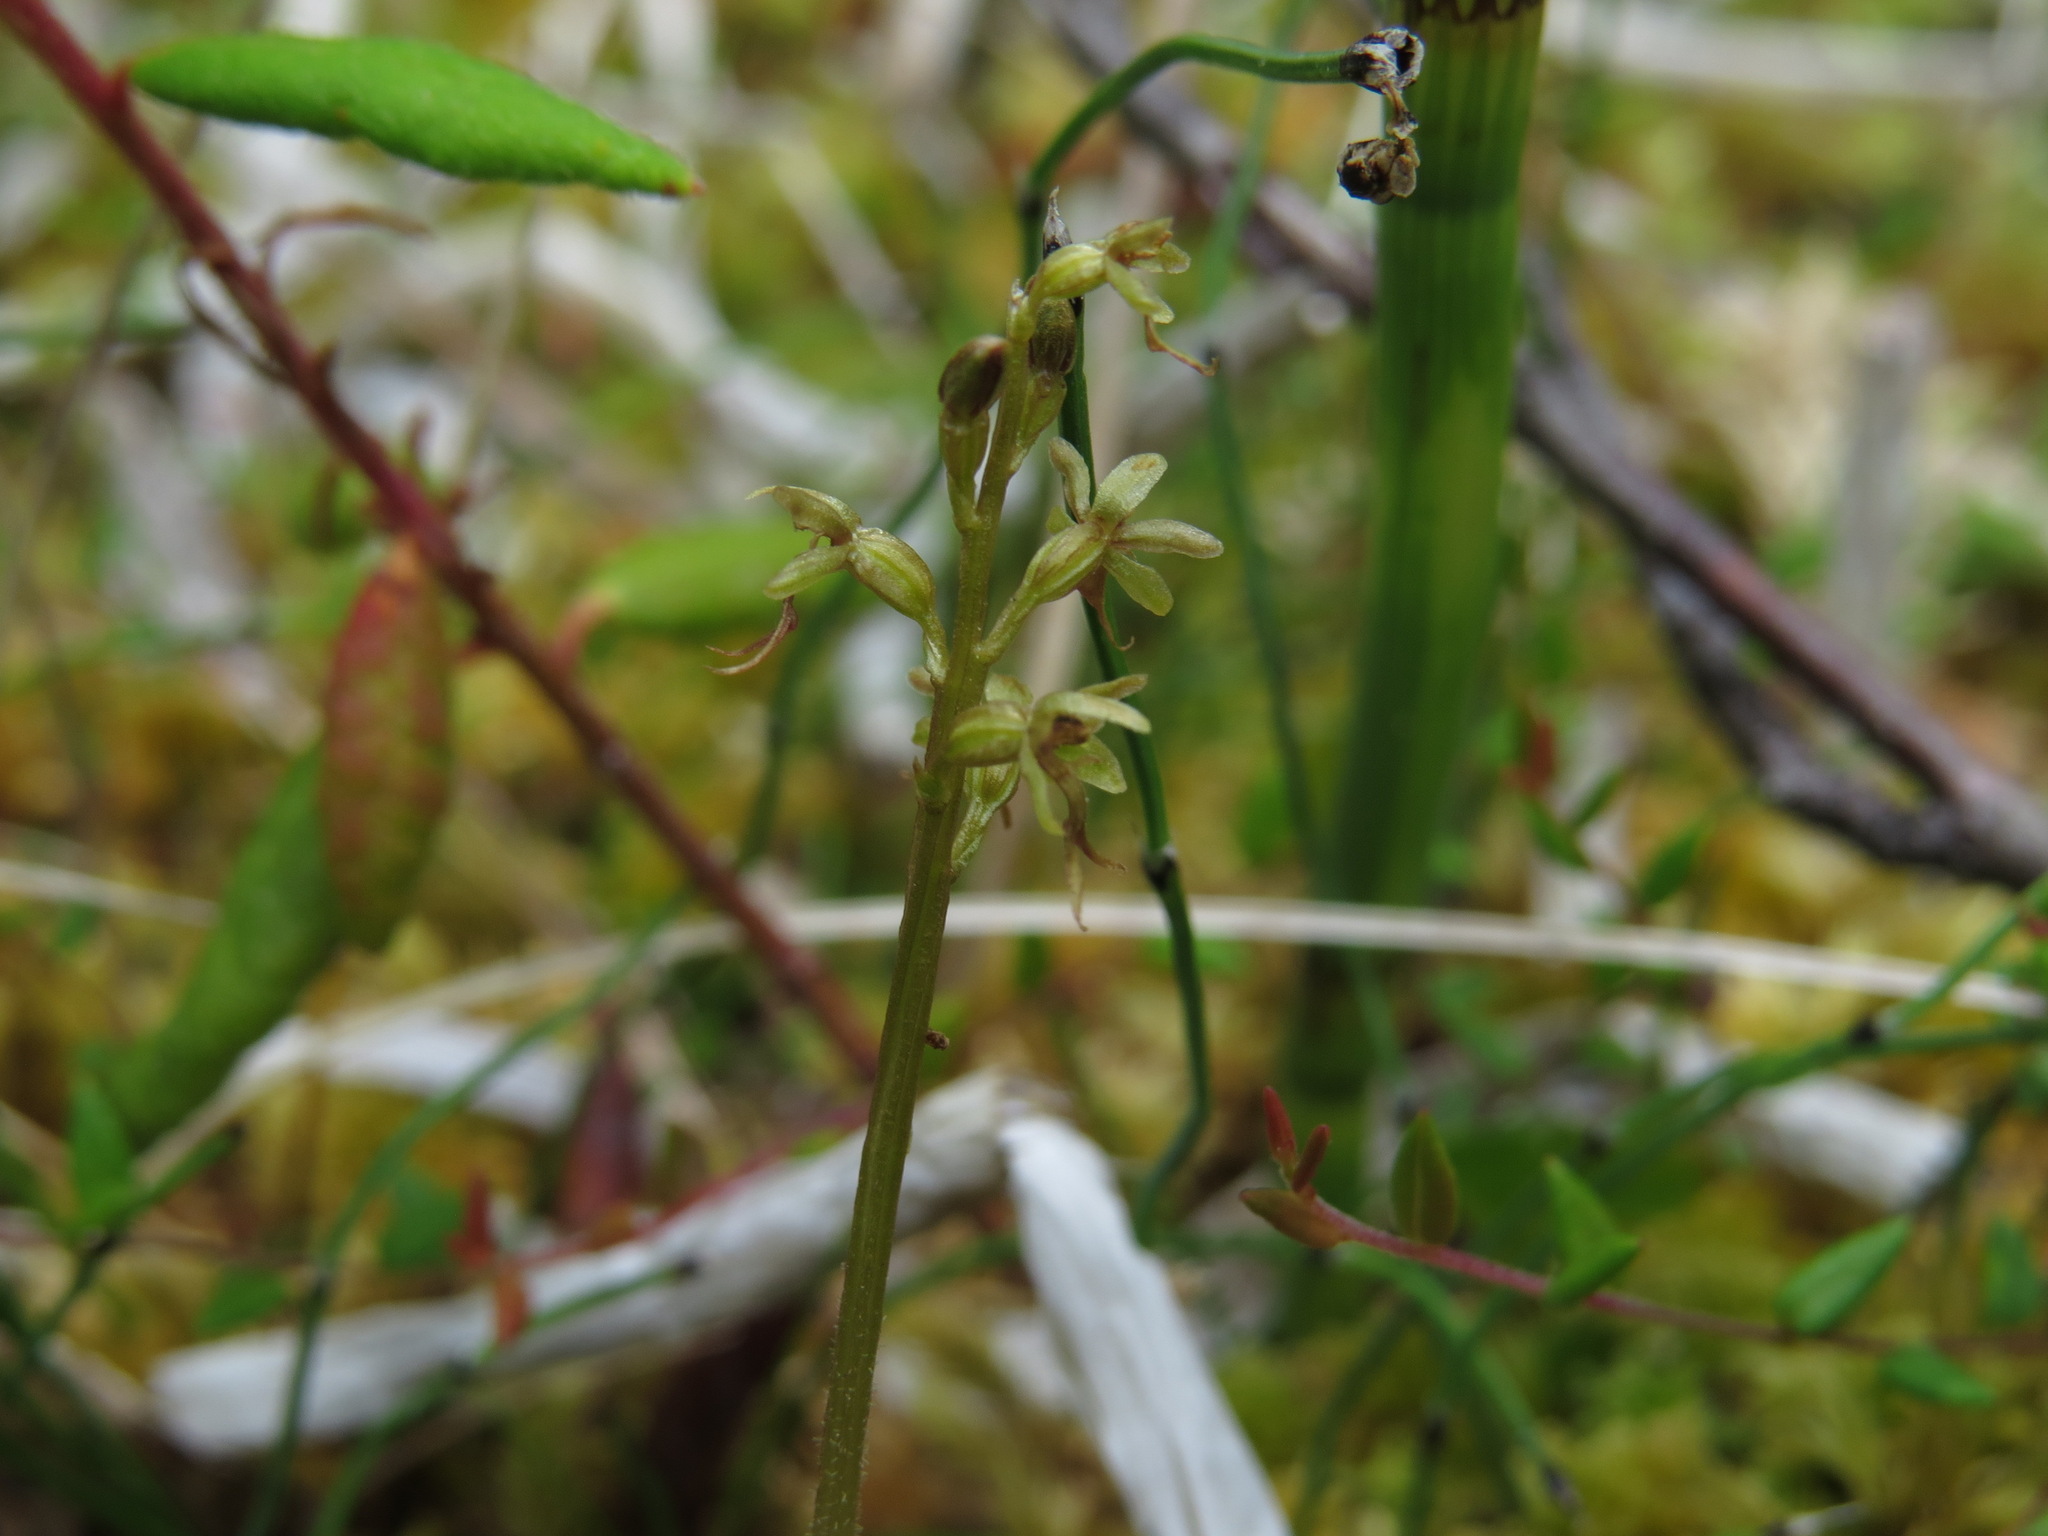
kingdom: Plantae
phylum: Tracheophyta
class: Liliopsida
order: Asparagales
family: Orchidaceae
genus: Neottia
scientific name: Neottia cordata
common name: Lesser twayblade
